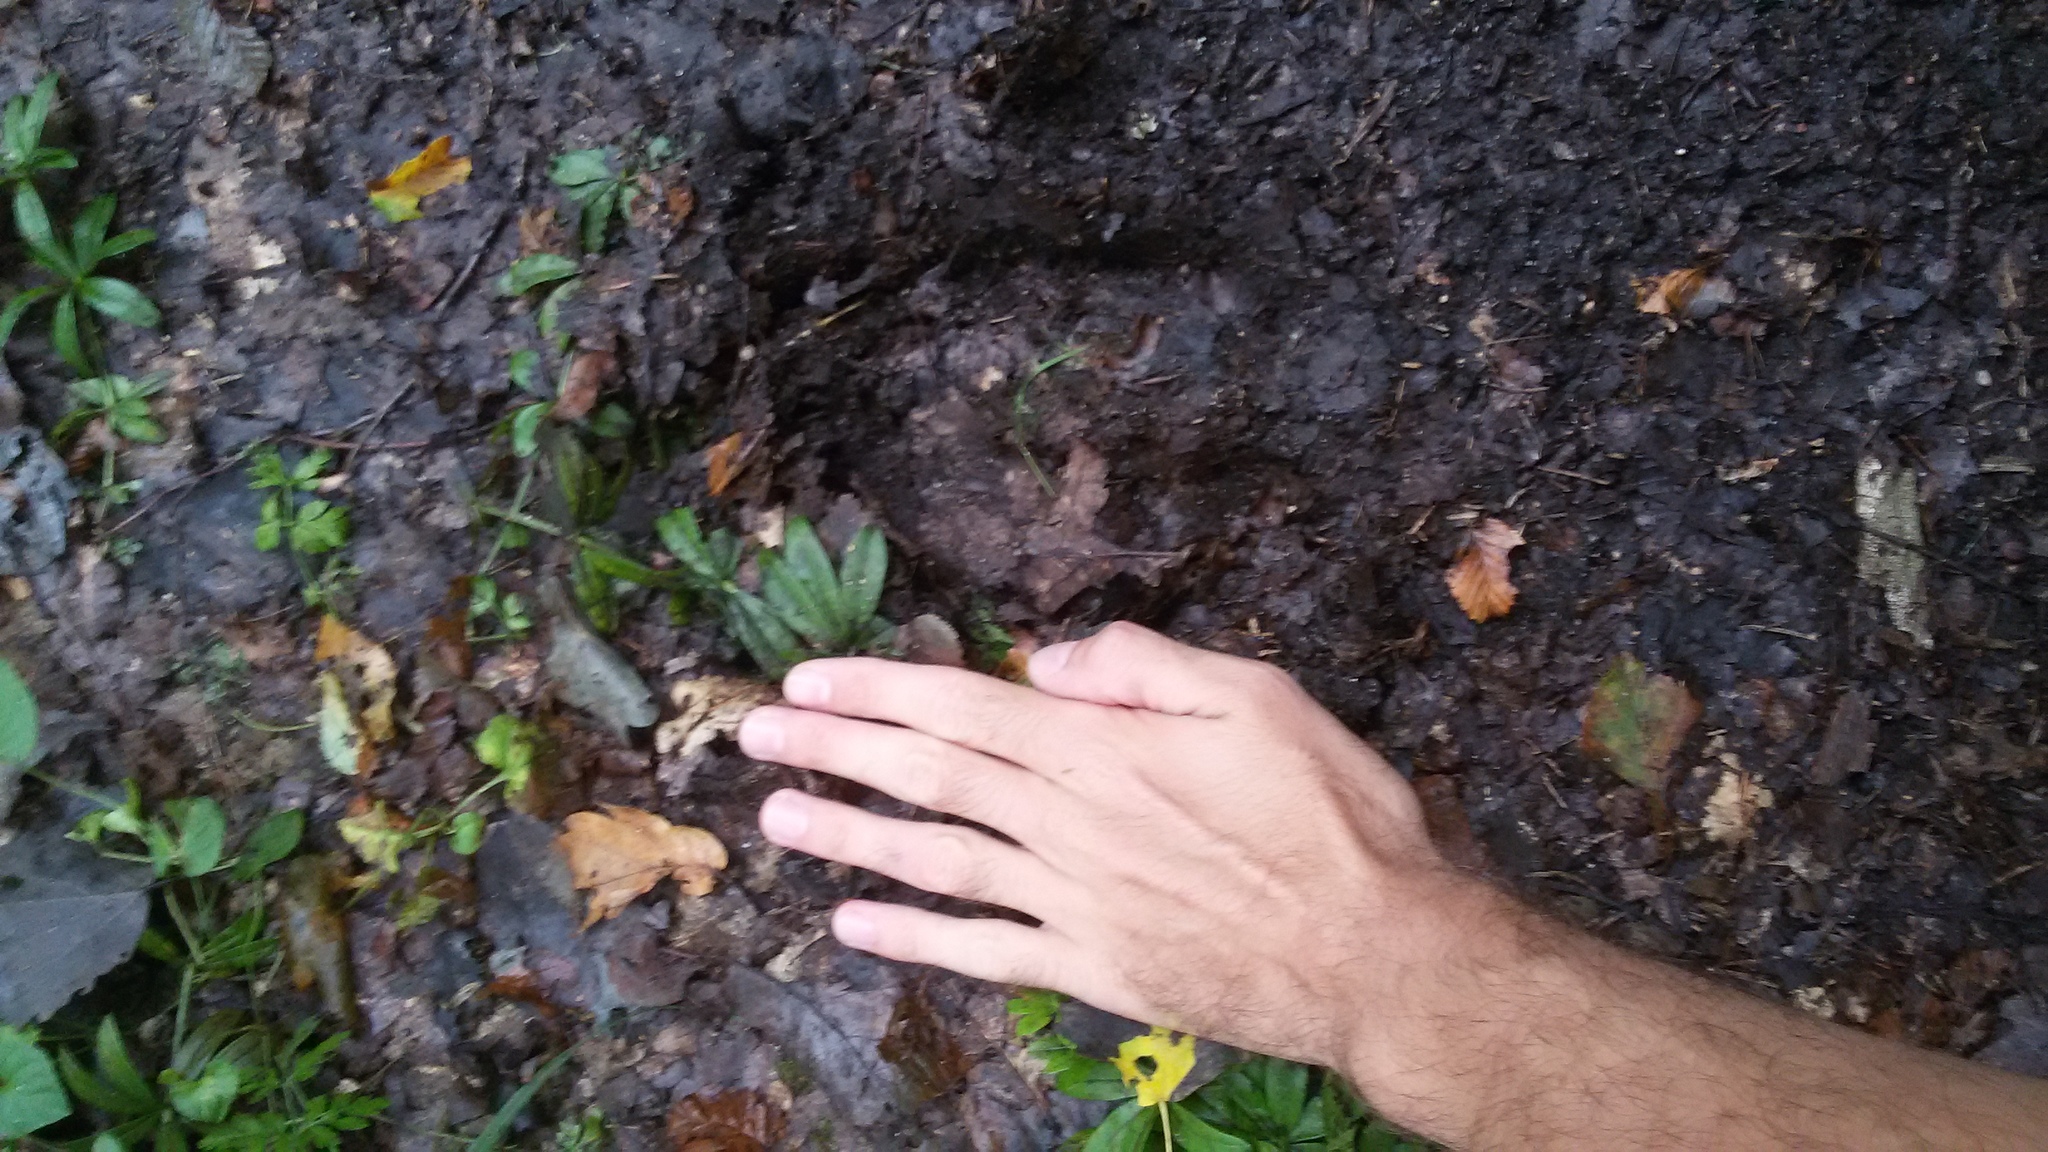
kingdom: Animalia
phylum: Chordata
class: Mammalia
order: Artiodactyla
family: Bovidae
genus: Bison
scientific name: Bison bonasus
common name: European bison
